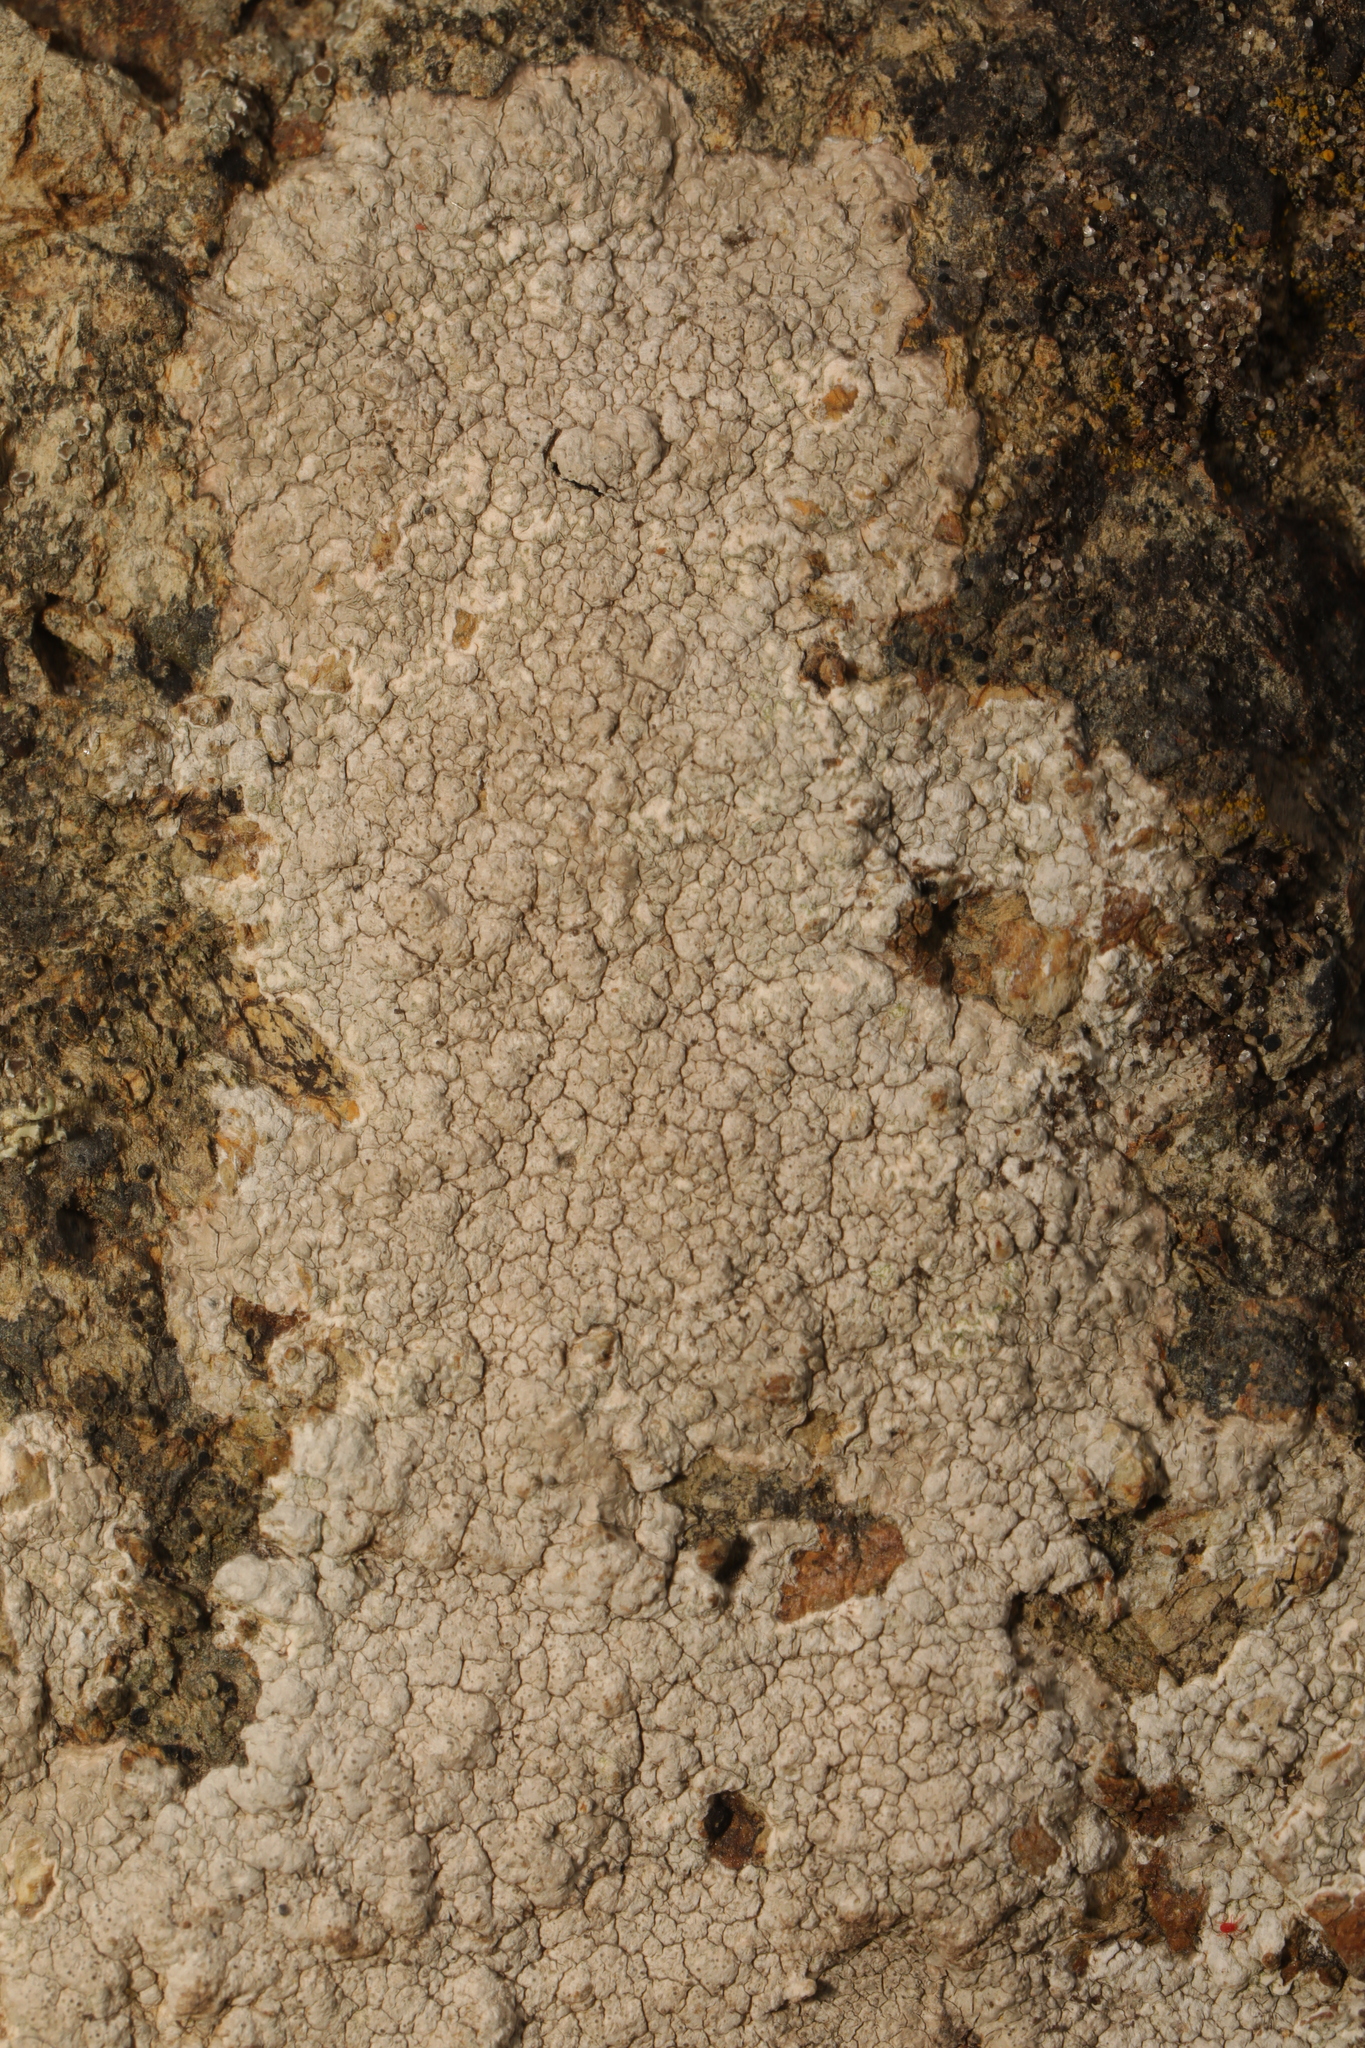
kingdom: Fungi
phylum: Ascomycota
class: Lecanoromycetes
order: Pertusariales
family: Pertusariaceae
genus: Pertusaria
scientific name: Pertusaria pseudocorallina
